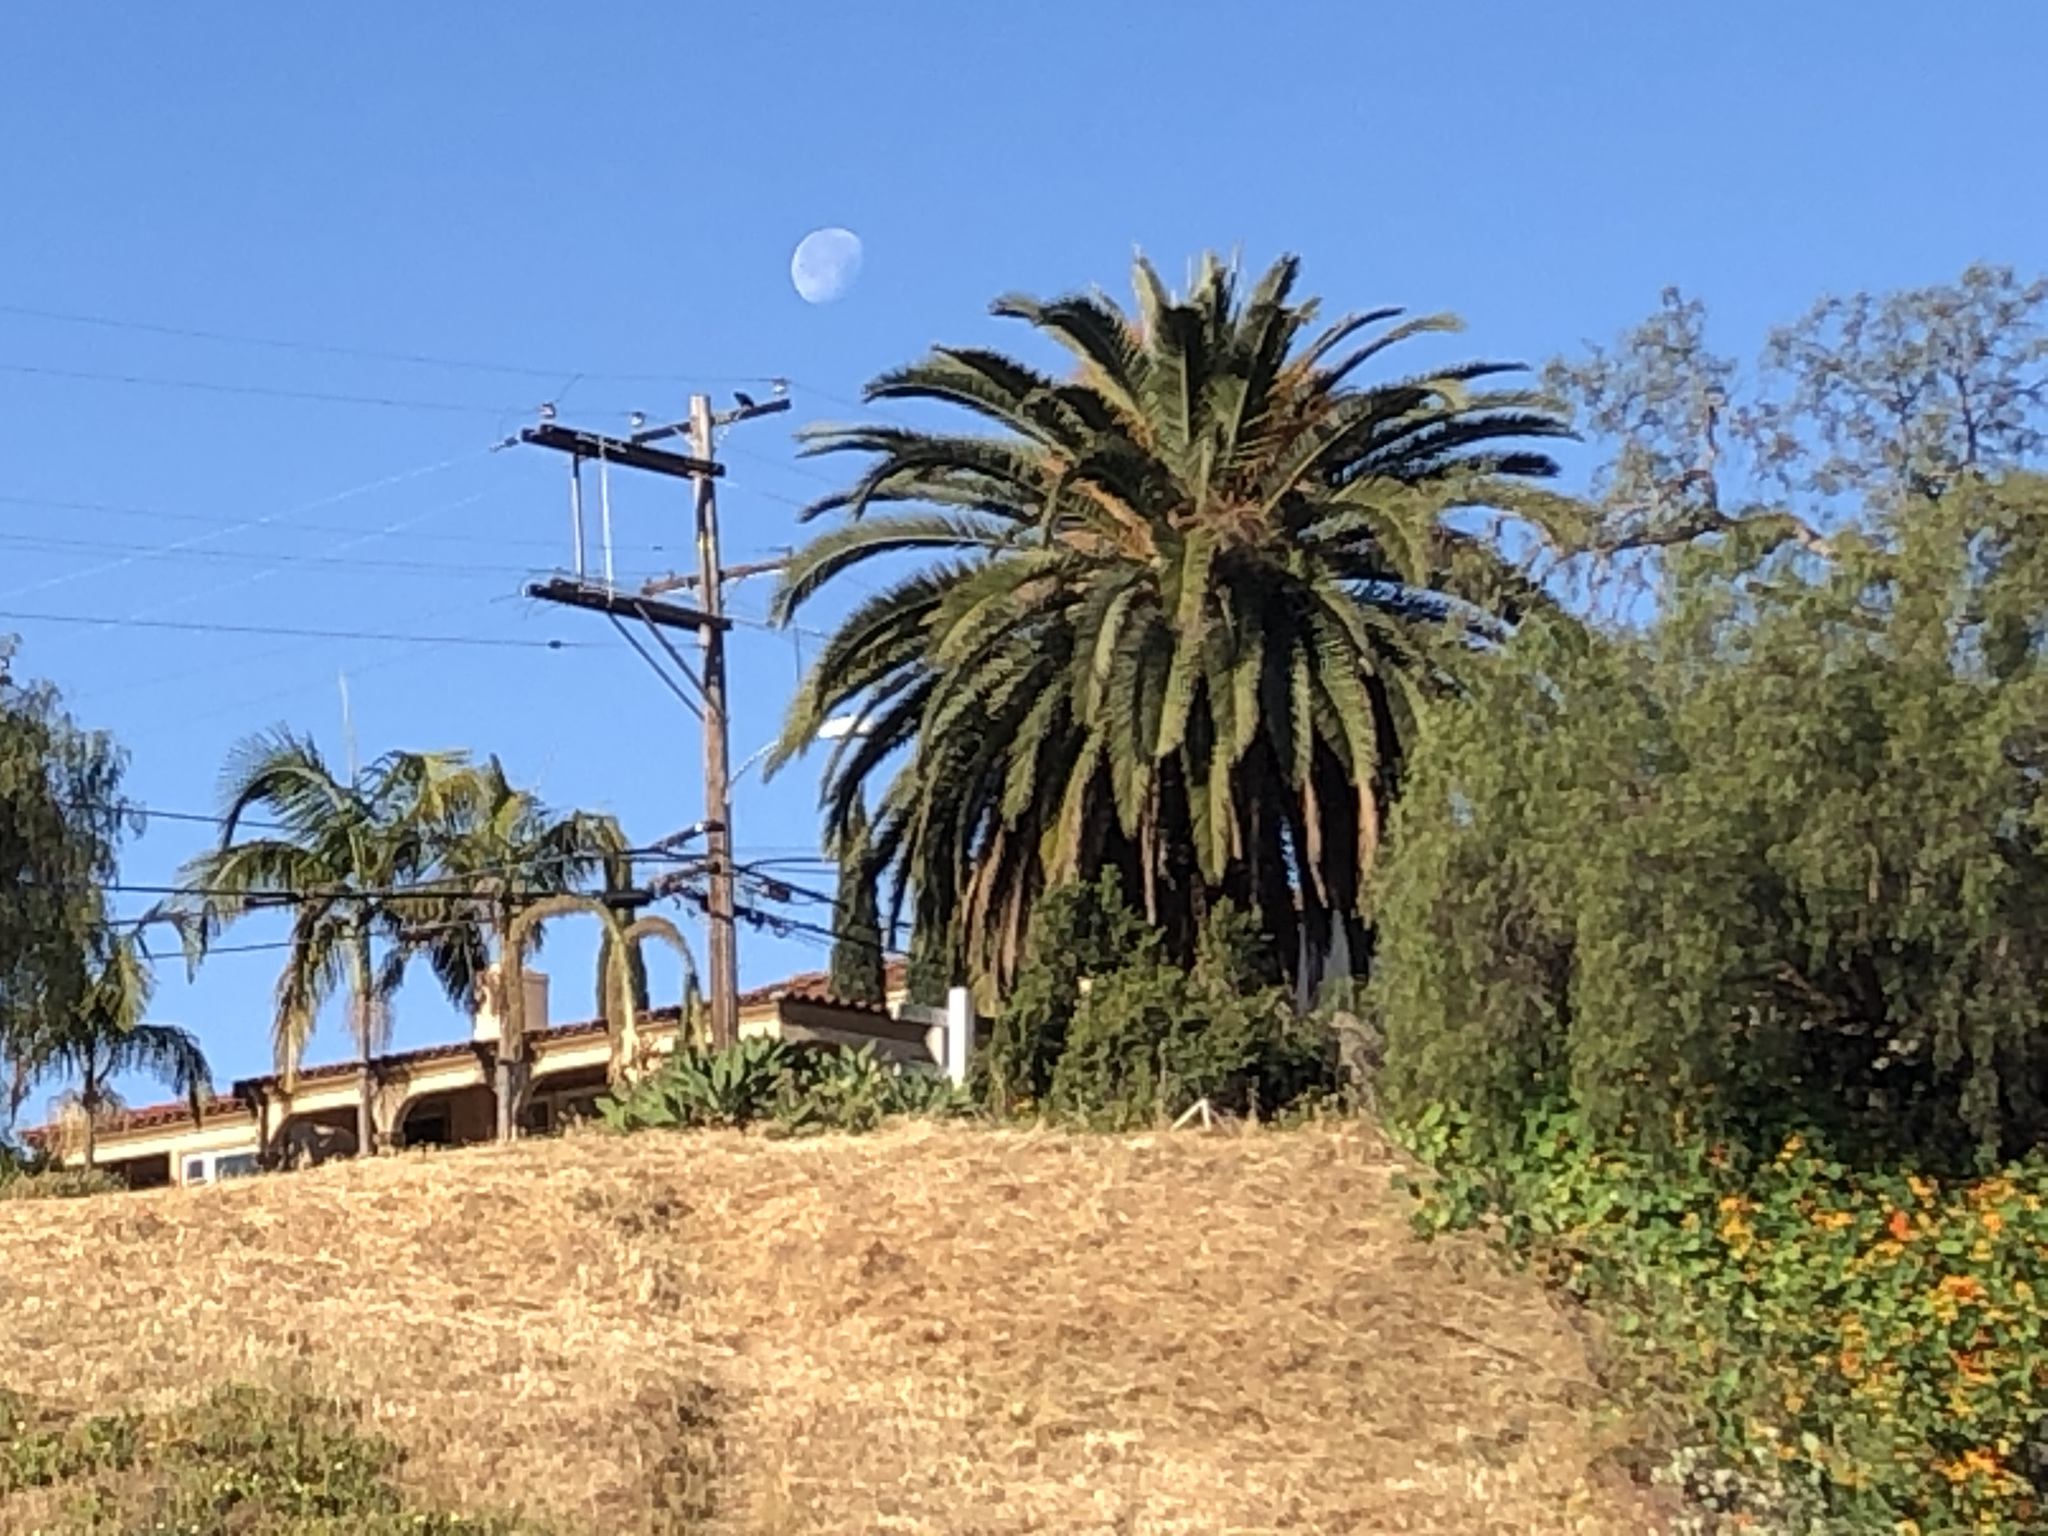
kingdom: Plantae
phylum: Tracheophyta
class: Magnoliopsida
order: Sapindales
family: Anacardiaceae
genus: Schinus
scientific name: Schinus molle
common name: Peruvian peppertree
